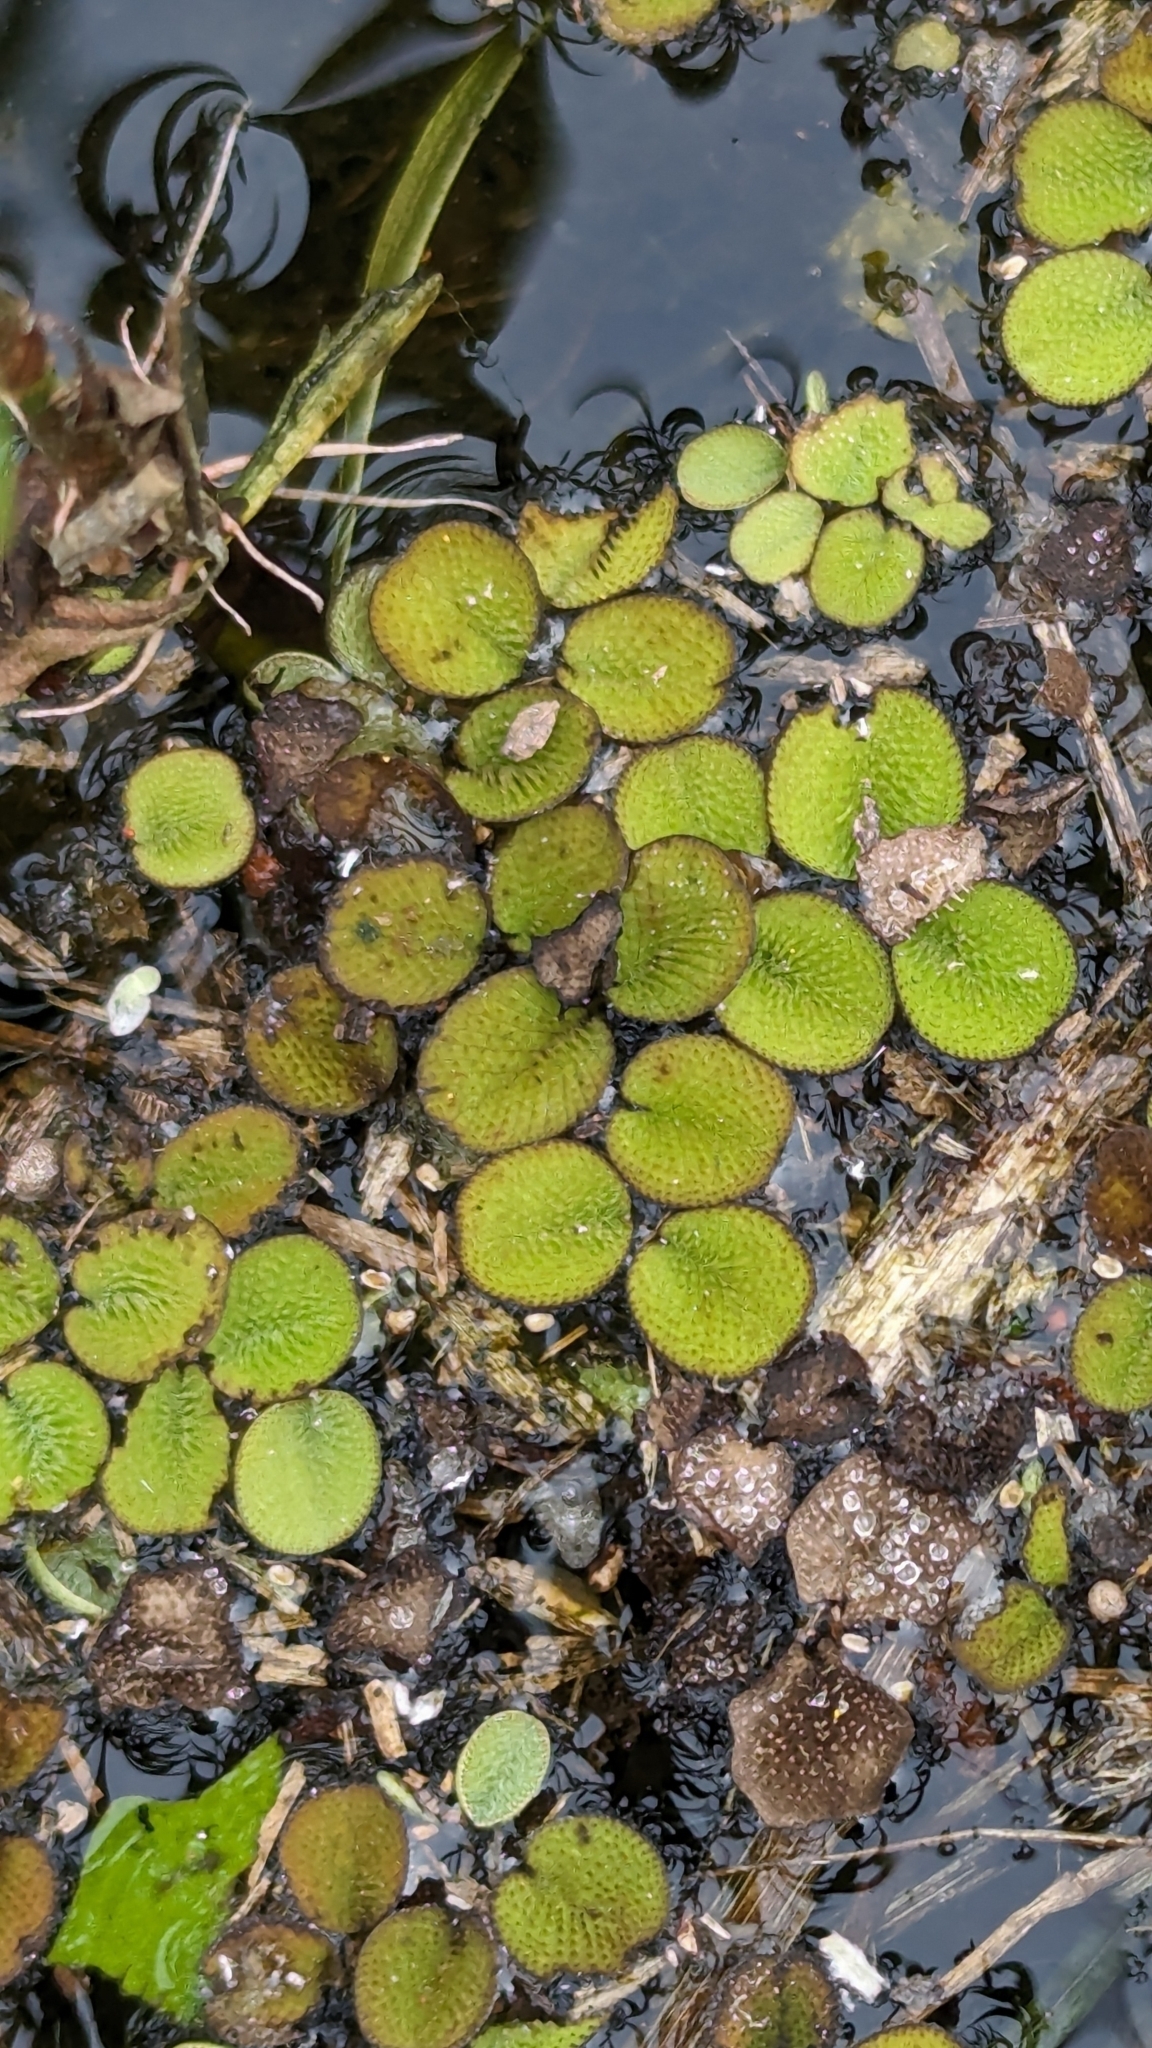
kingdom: Plantae
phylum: Tracheophyta
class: Polypodiopsida
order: Salviniales
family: Salviniaceae
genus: Salvinia
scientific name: Salvinia minima
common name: Water spangles
